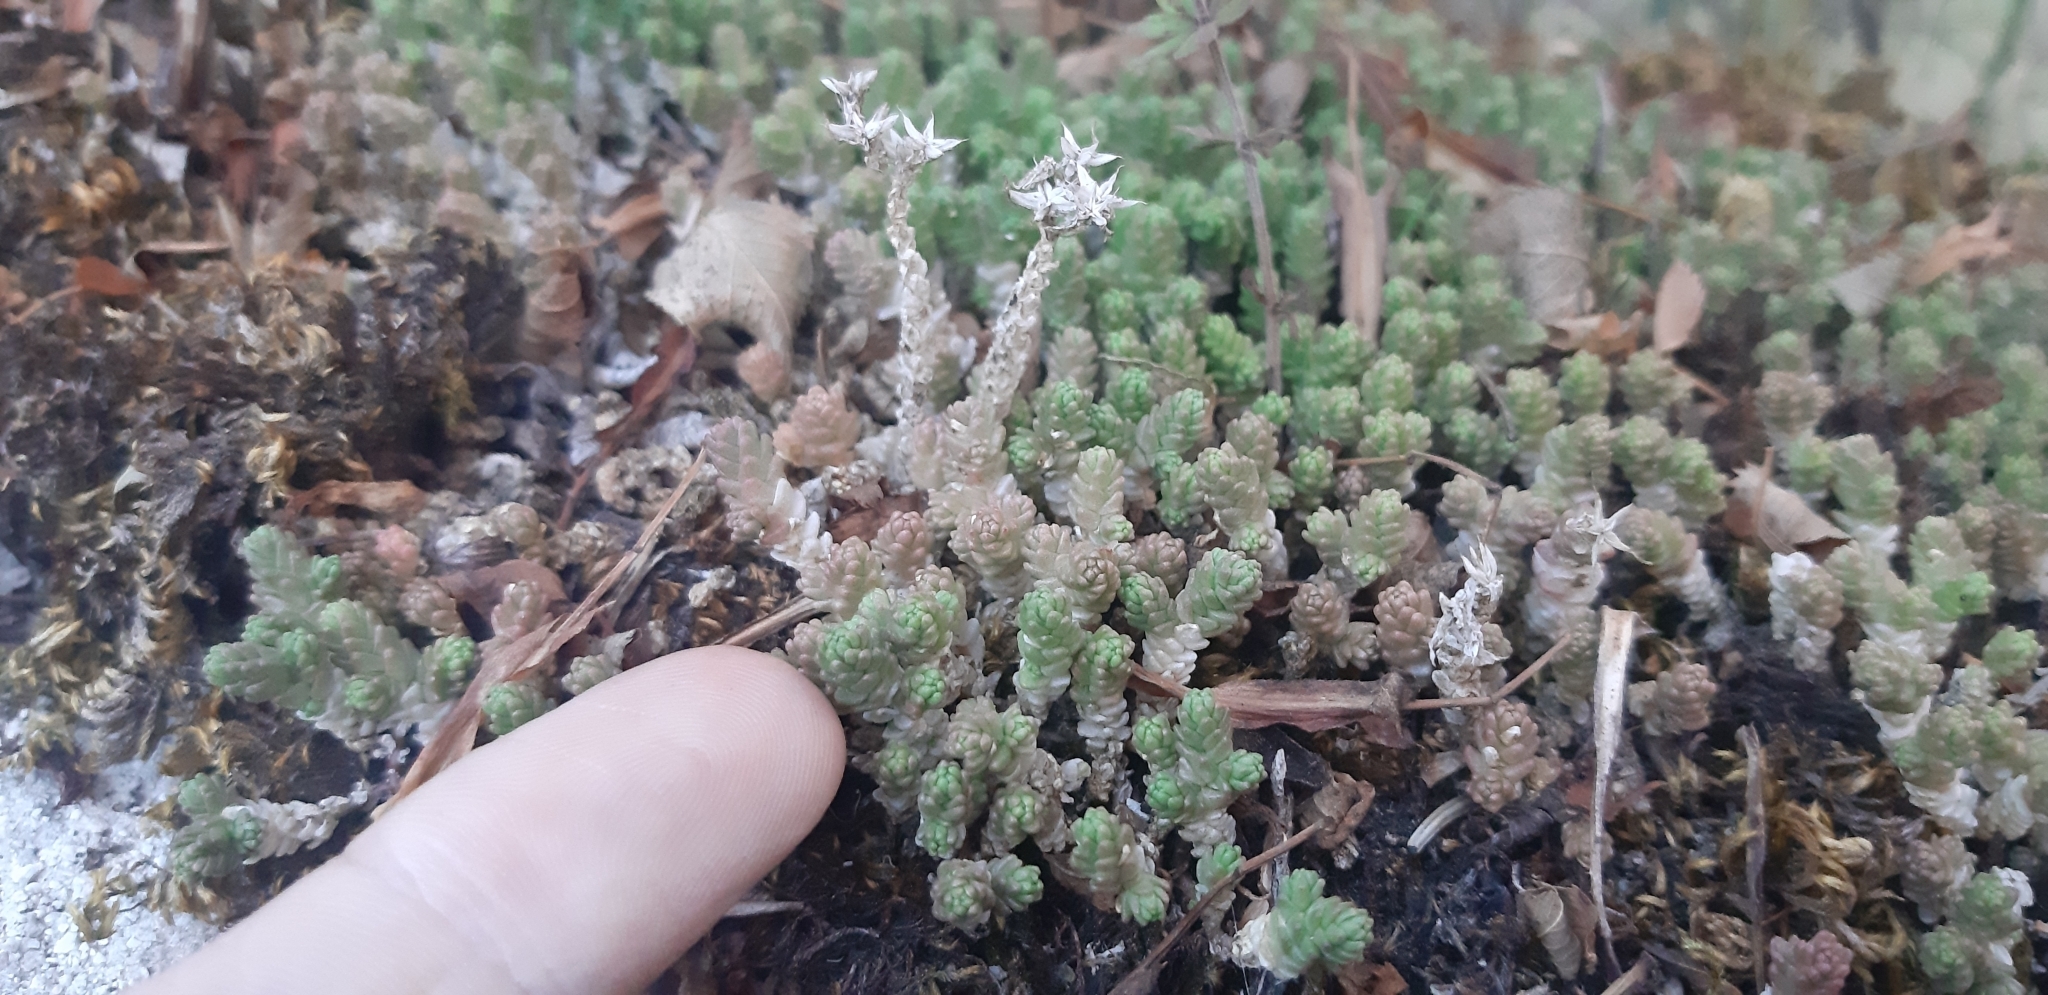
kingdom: Plantae
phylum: Tracheophyta
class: Magnoliopsida
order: Saxifragales
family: Crassulaceae
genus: Sedum
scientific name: Sedum acre
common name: Biting stonecrop
